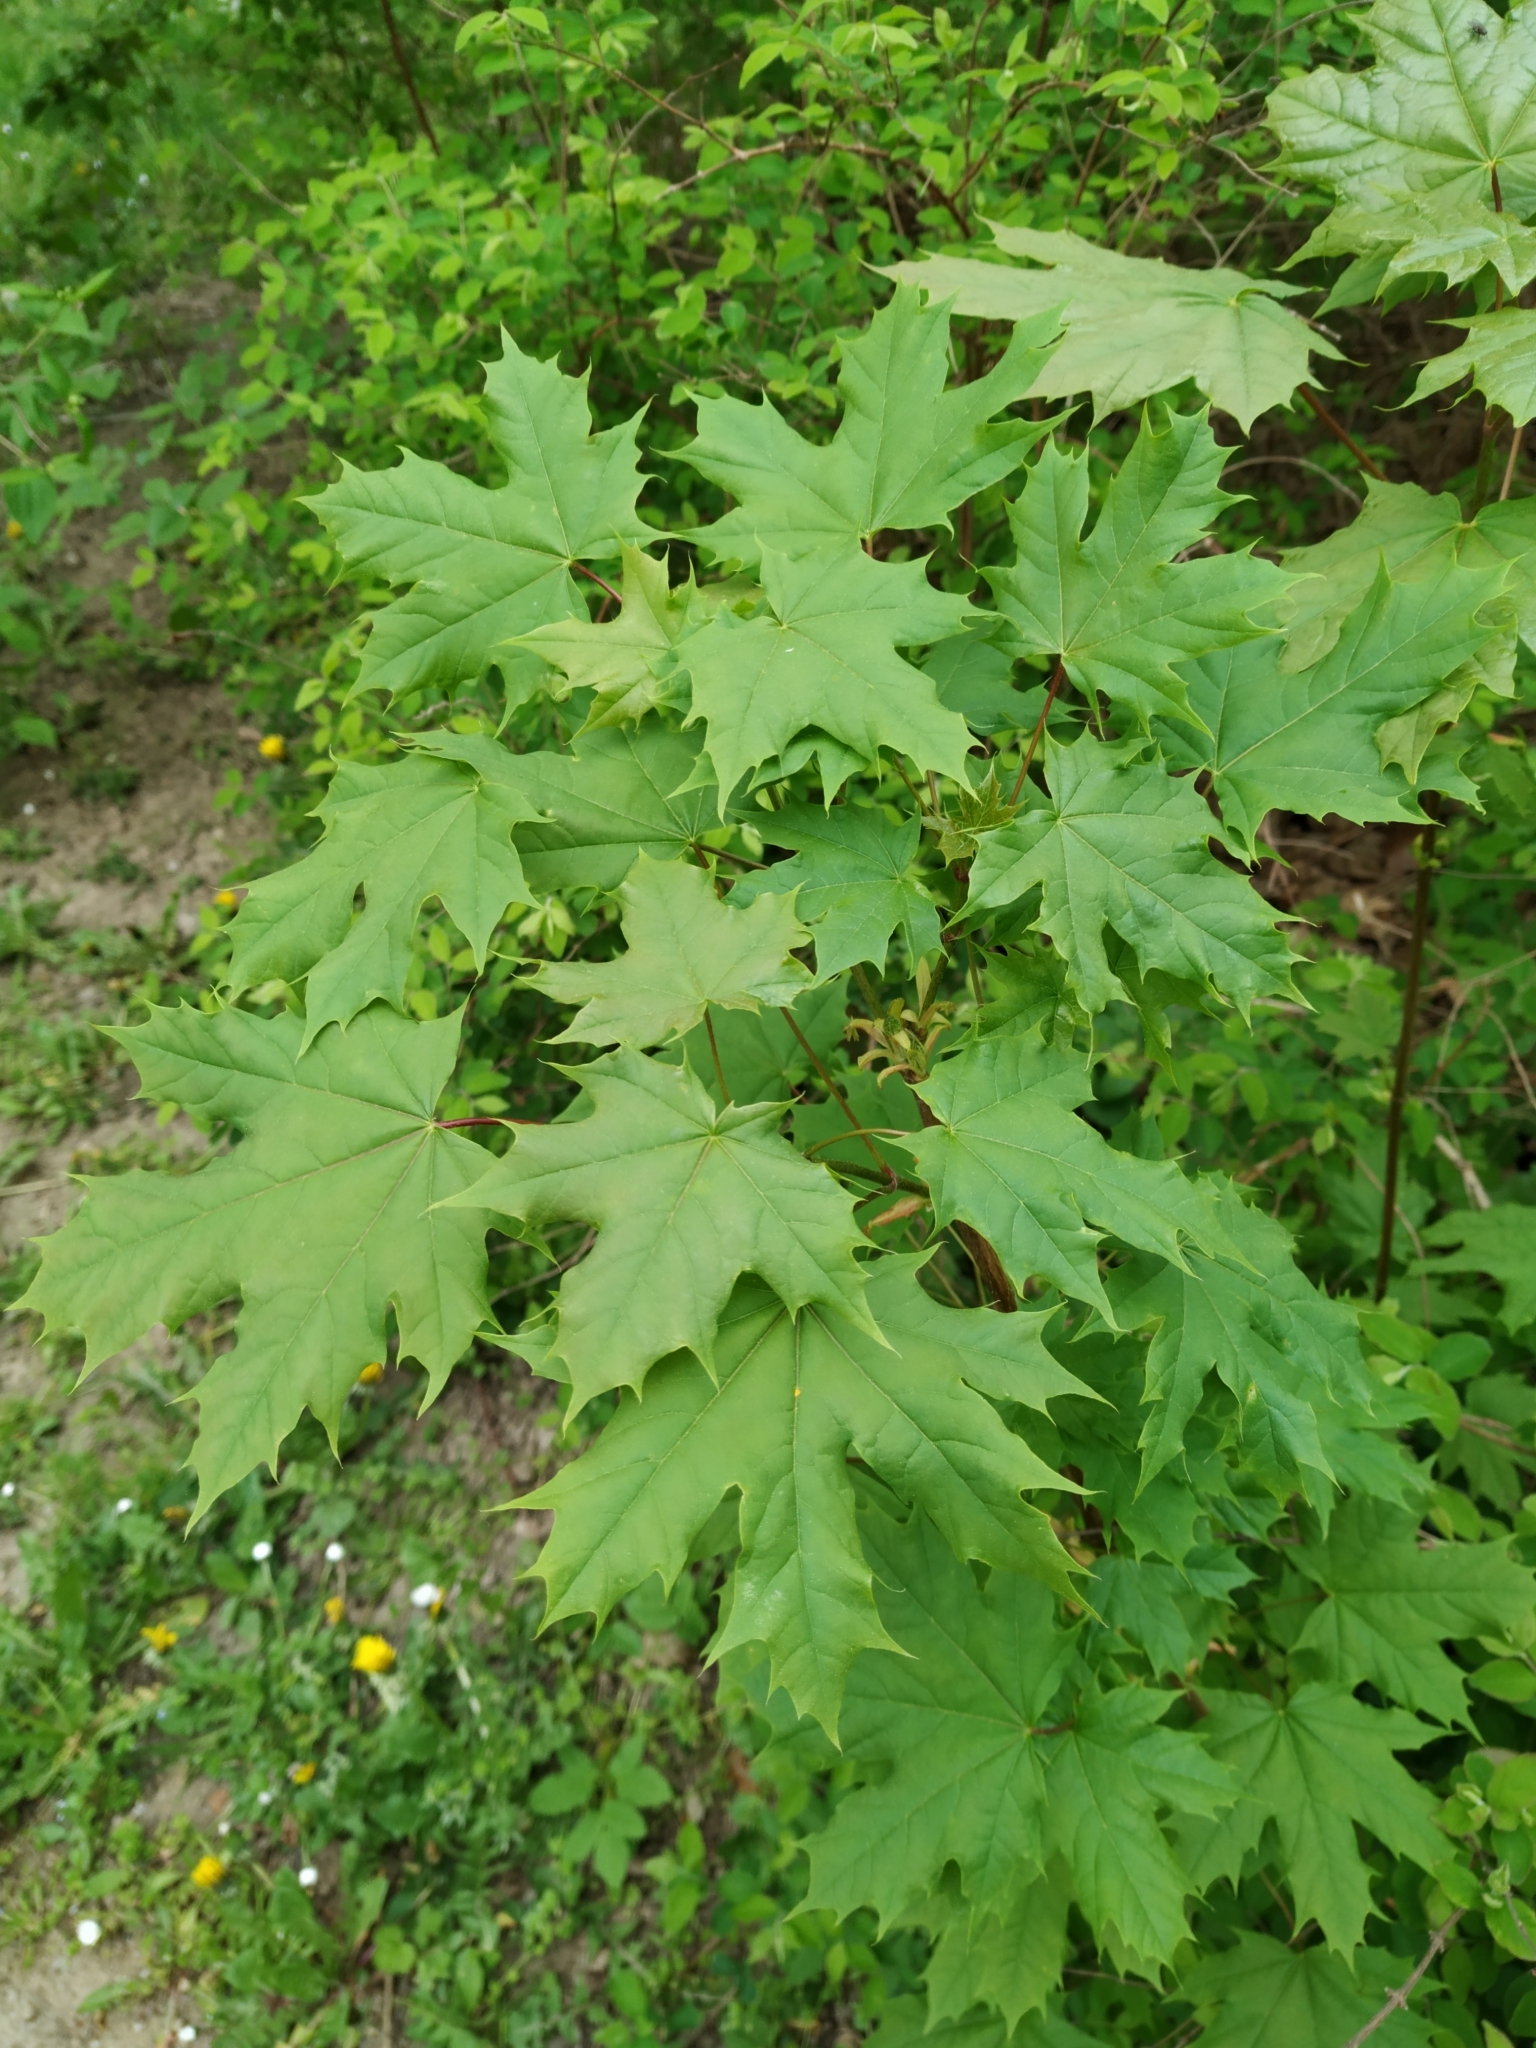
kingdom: Plantae
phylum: Tracheophyta
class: Magnoliopsida
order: Sapindales
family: Sapindaceae
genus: Acer
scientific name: Acer platanoides
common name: Norway maple
